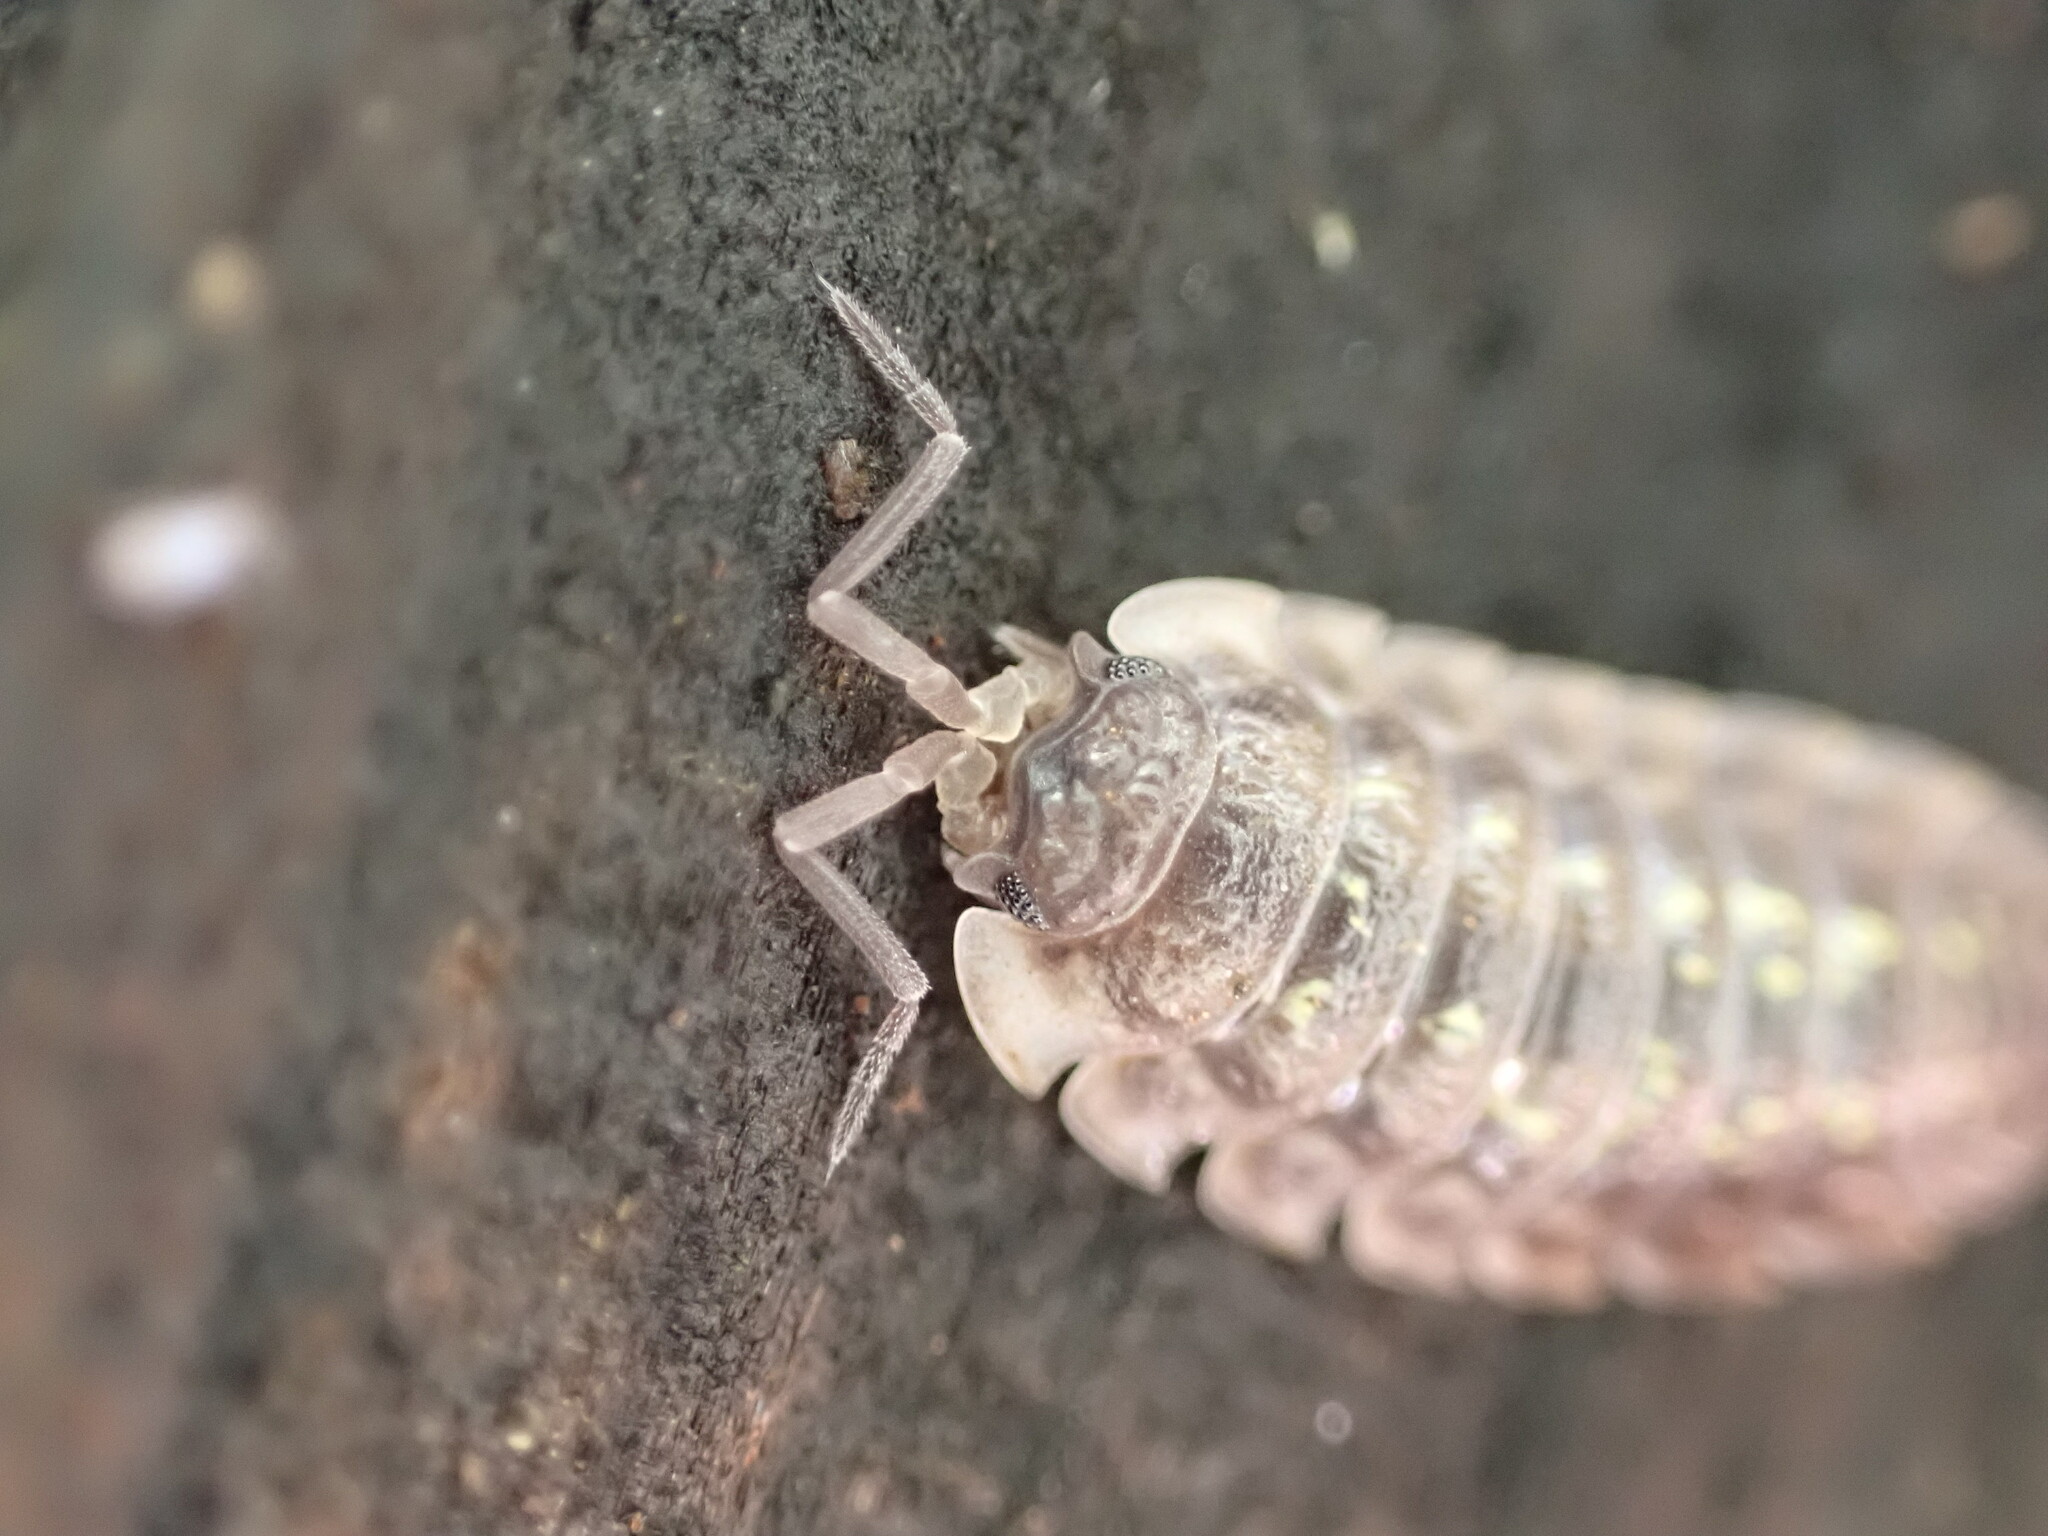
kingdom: Animalia
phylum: Arthropoda
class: Malacostraca
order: Isopoda
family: Oniscidae
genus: Oniscus
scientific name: Oniscus asellus
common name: Common shiny woodlouse
